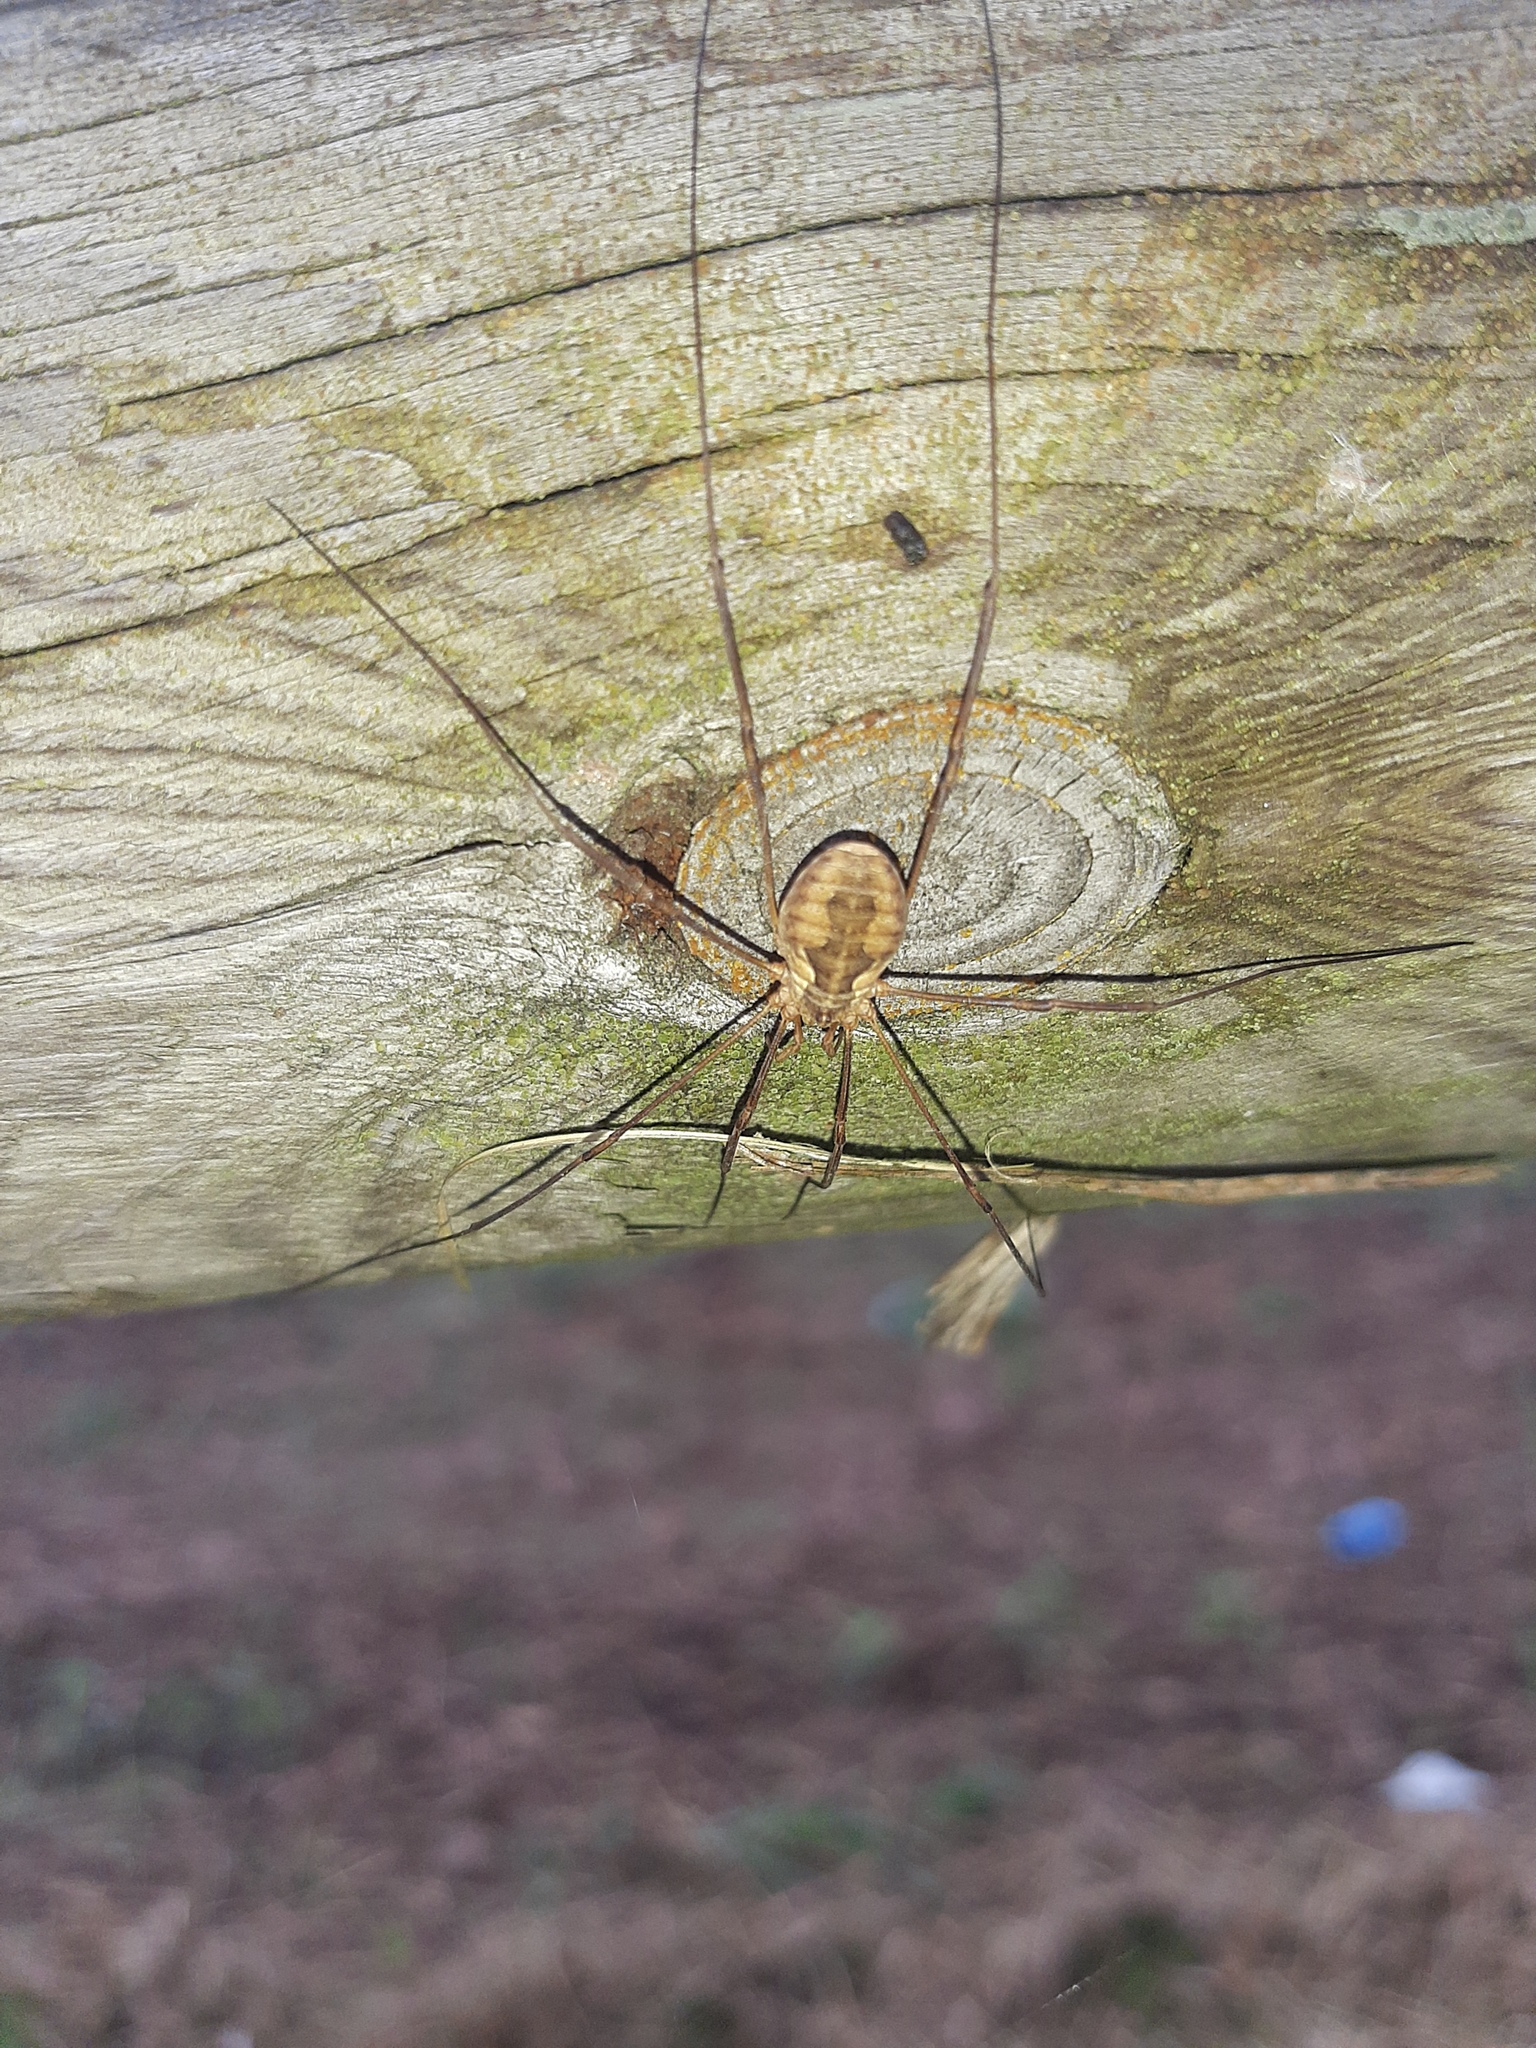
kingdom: Animalia
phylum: Arthropoda
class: Arachnida
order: Opiliones
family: Phalangiidae
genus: Phalangium
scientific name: Phalangium opilio
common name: Daddy longleg
